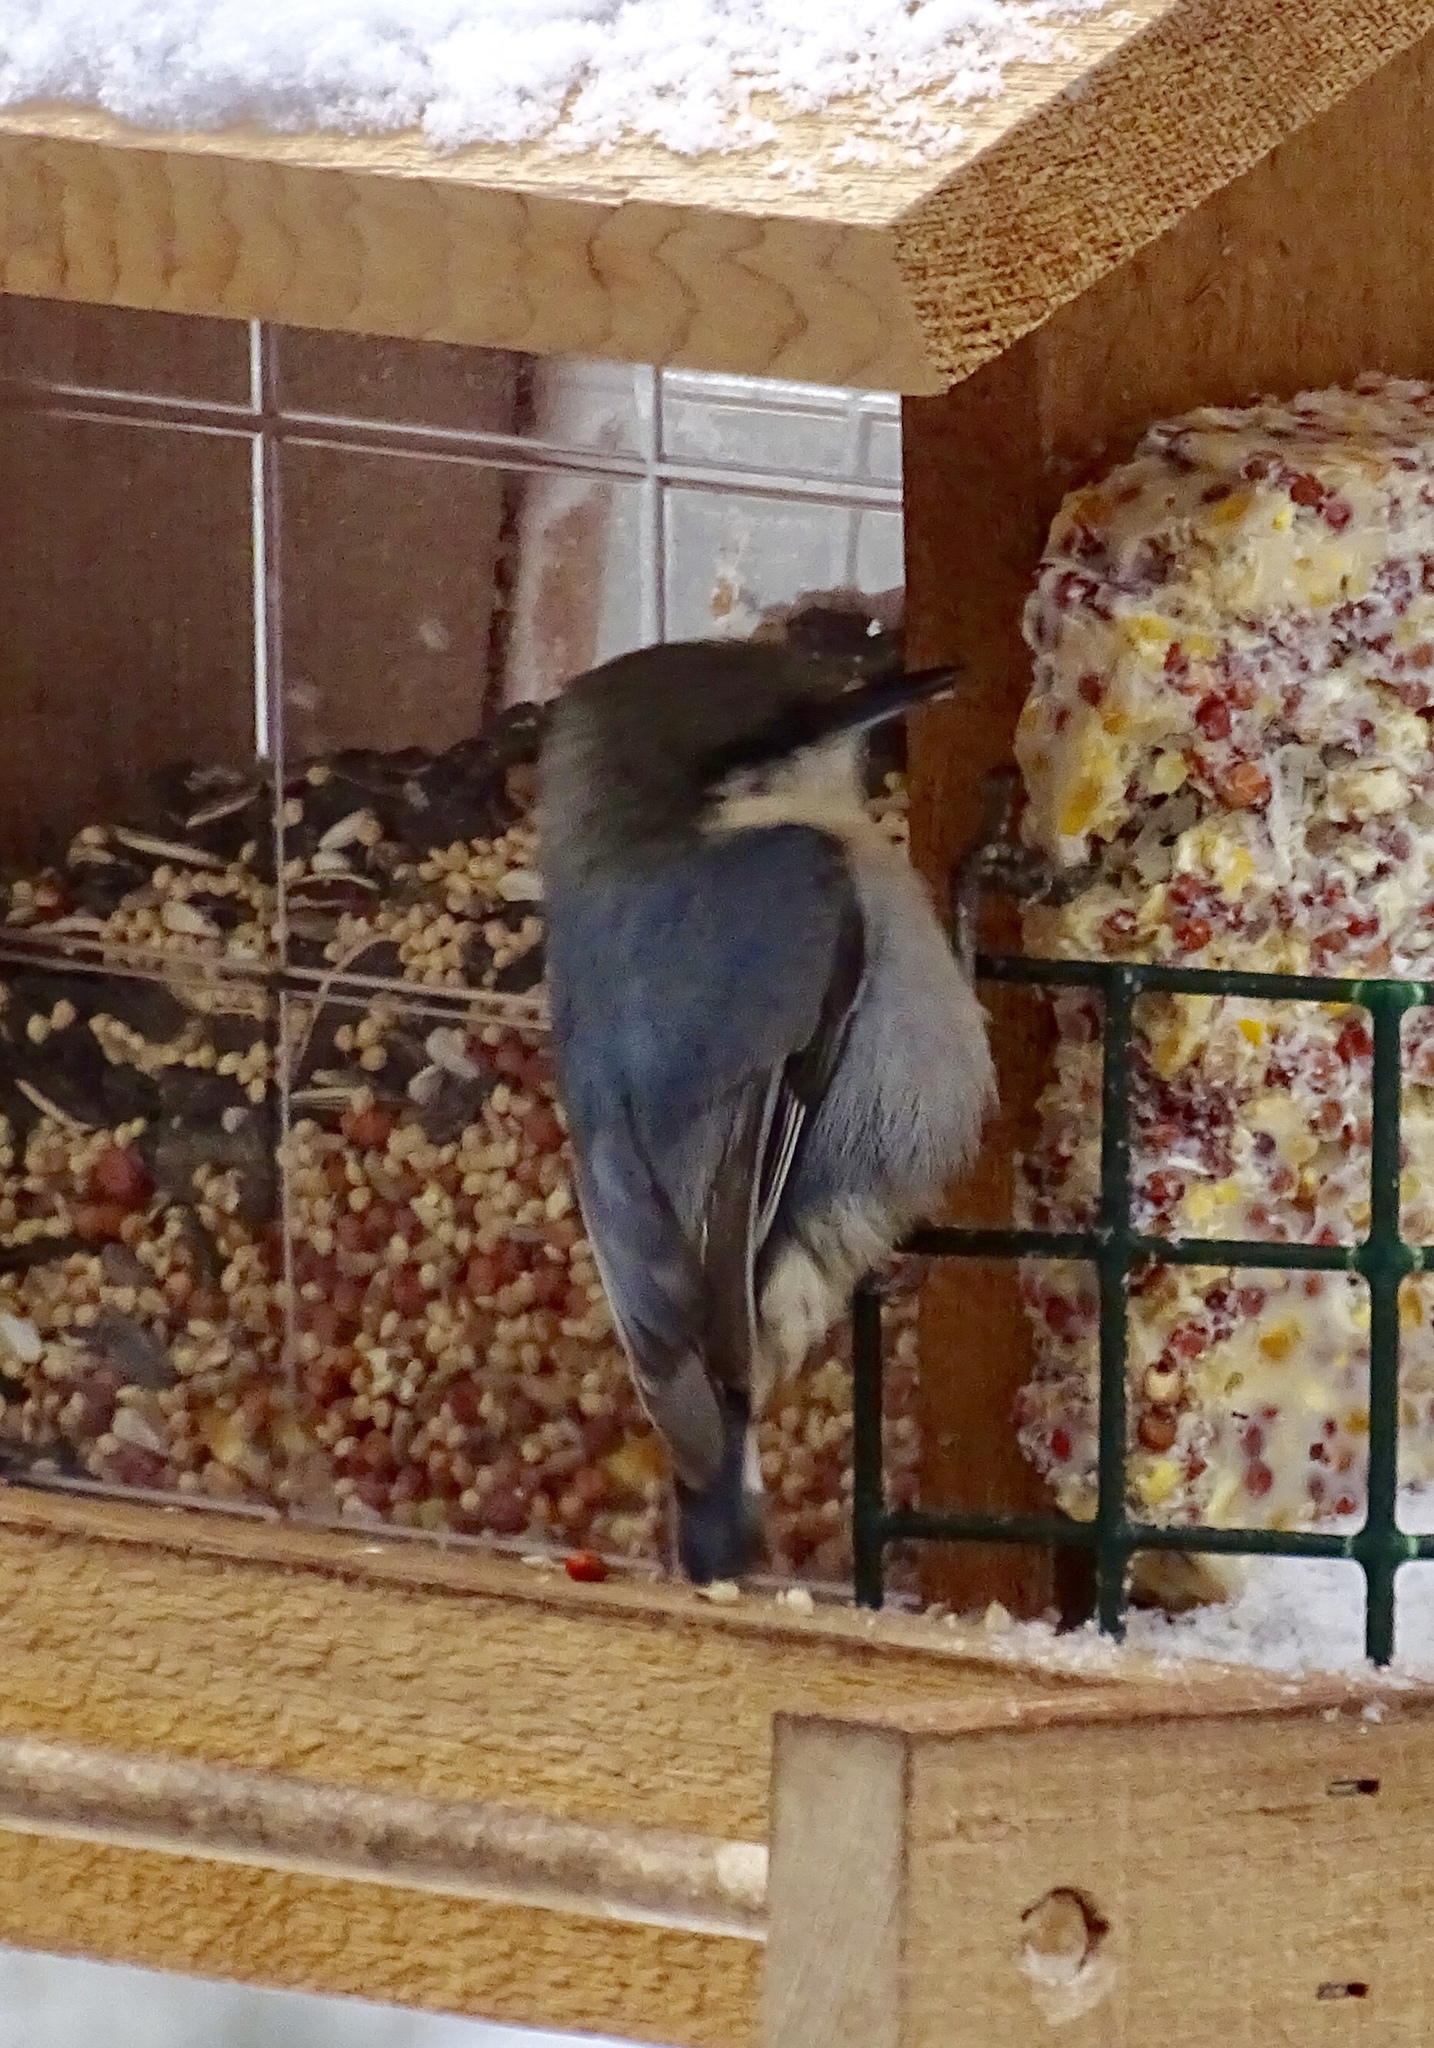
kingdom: Animalia
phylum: Chordata
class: Aves
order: Passeriformes
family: Sittidae
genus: Sitta
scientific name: Sitta pygmaea
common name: Pygmy nuthatch
